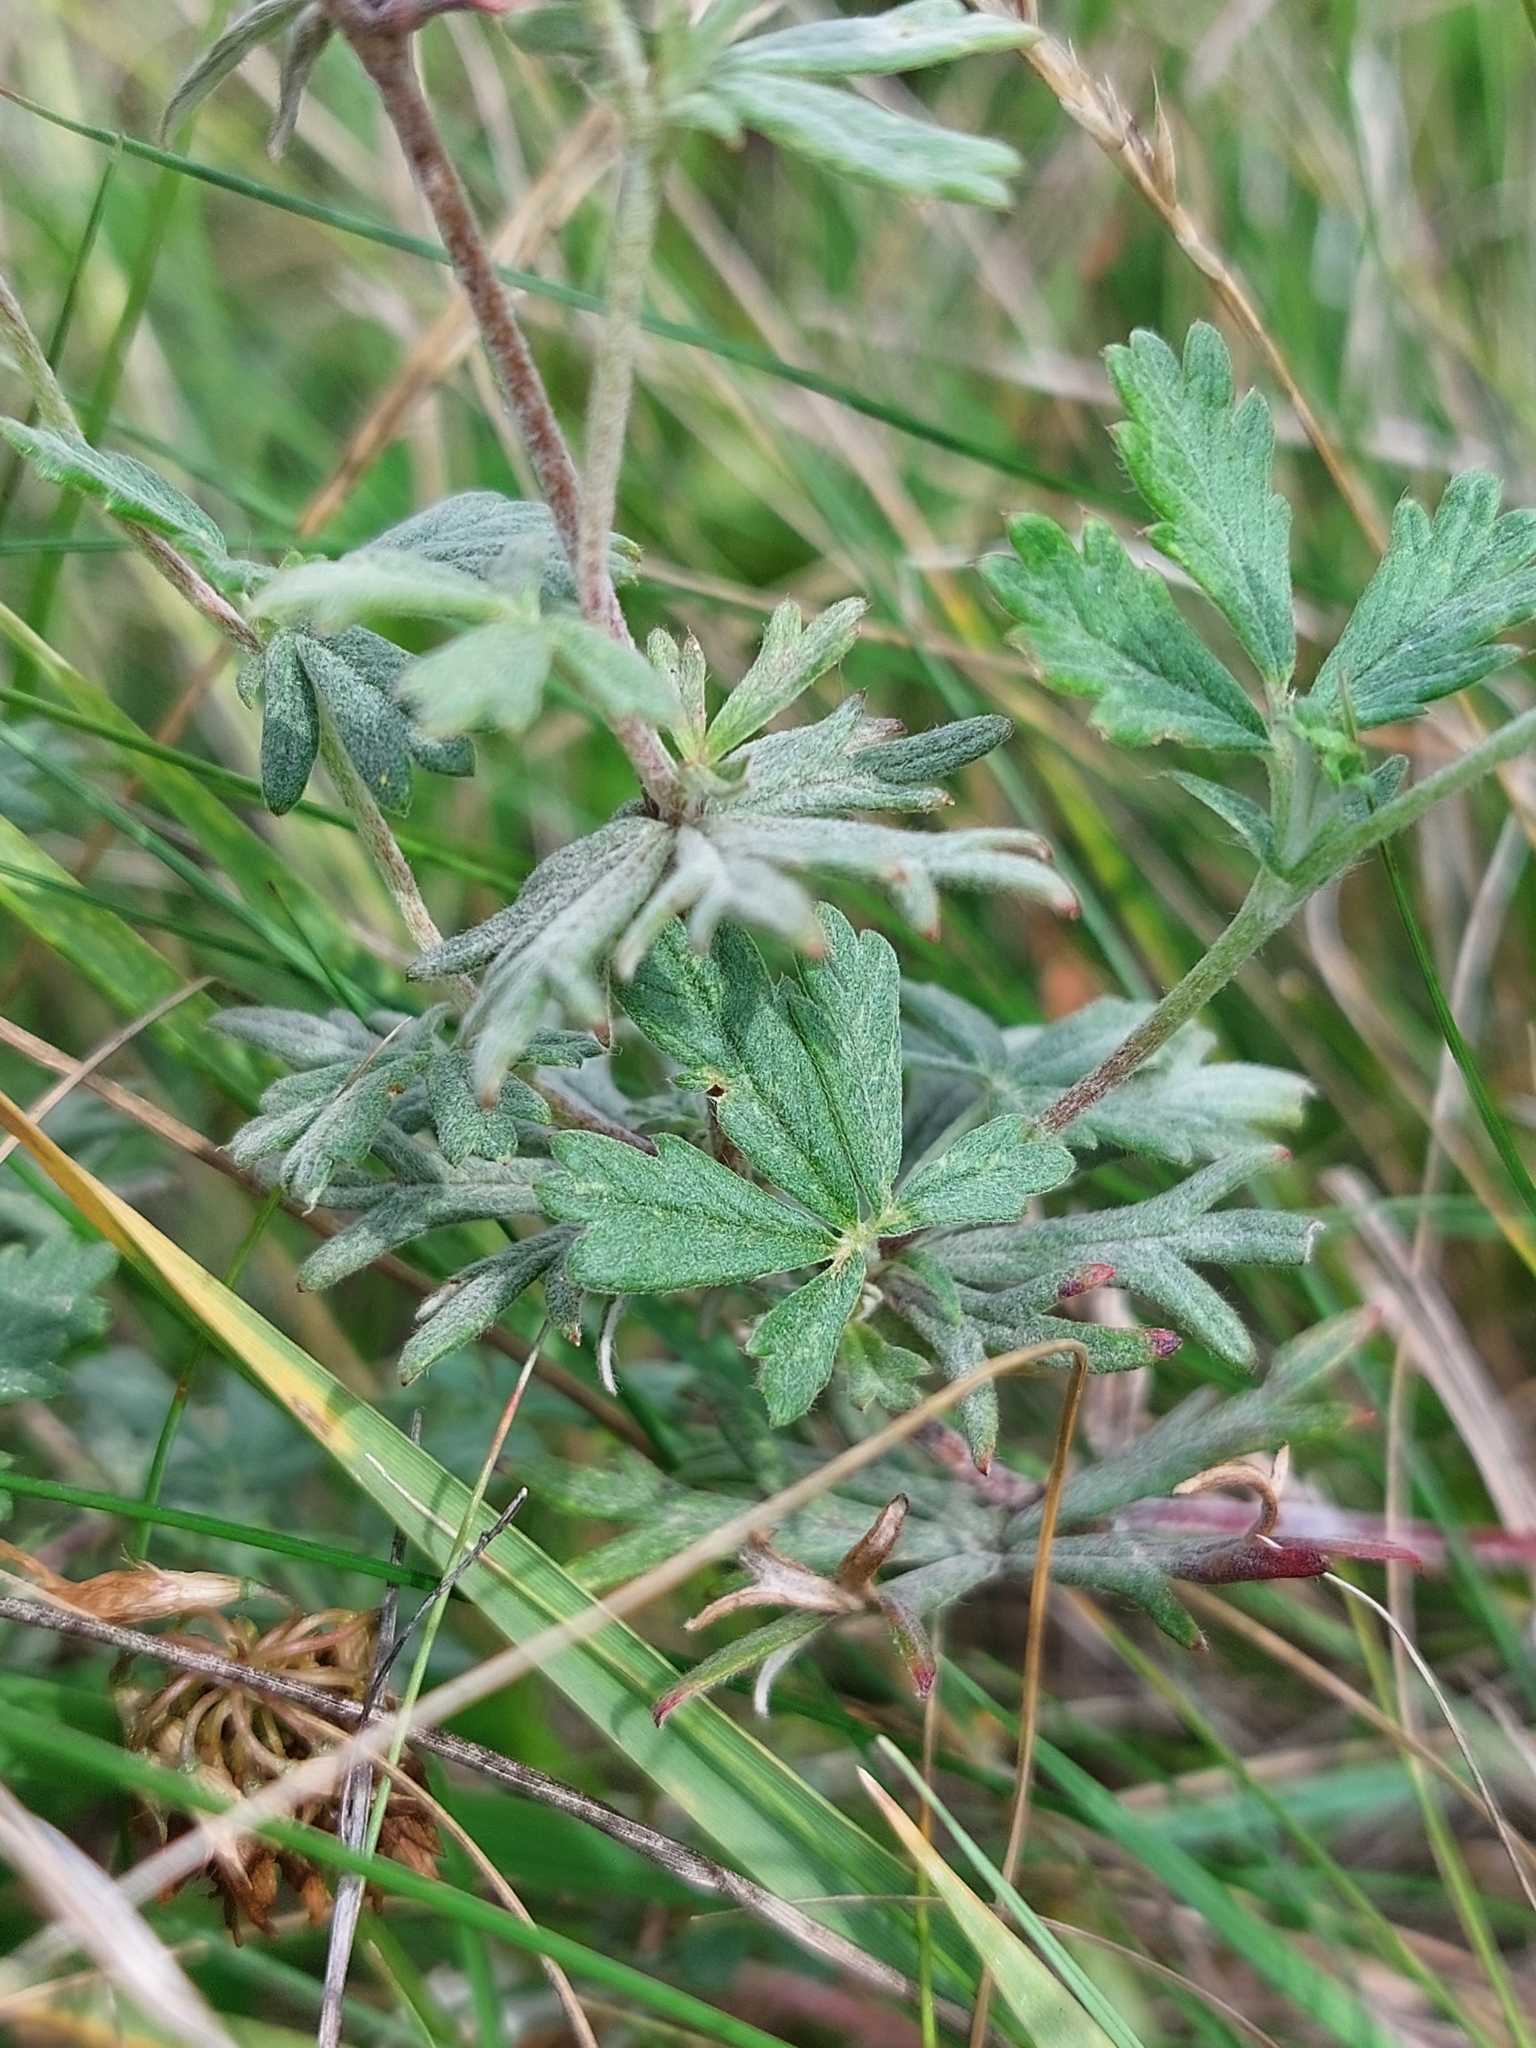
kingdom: Plantae
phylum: Tracheophyta
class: Magnoliopsida
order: Rosales
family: Rosaceae
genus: Potentilla
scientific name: Potentilla argentea
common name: Hoary cinquefoil
